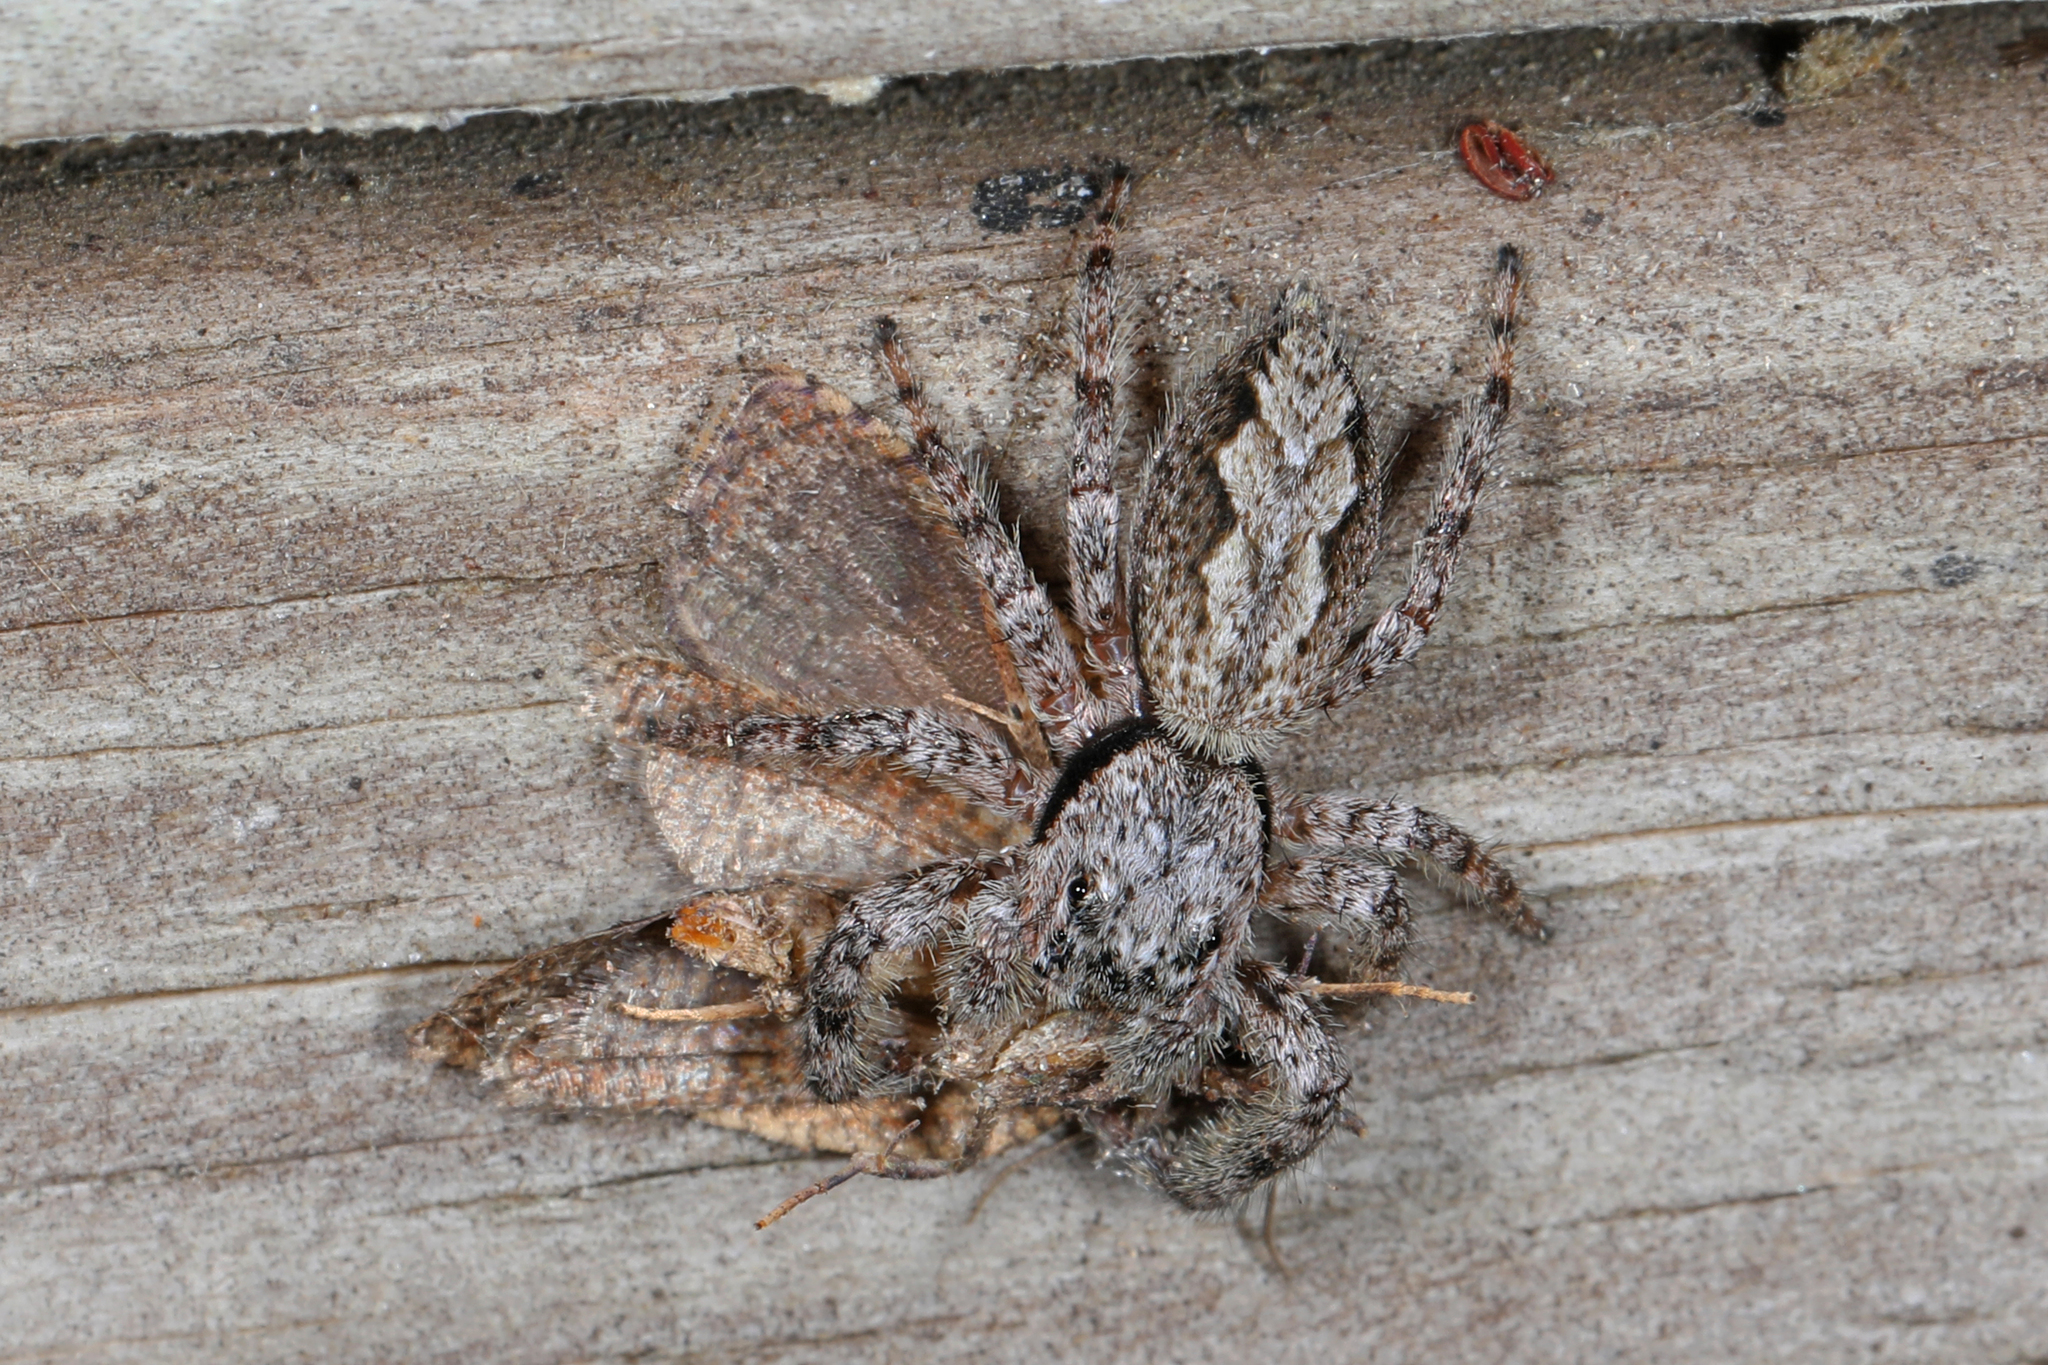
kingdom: Animalia
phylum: Arthropoda
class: Arachnida
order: Araneae
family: Salticidae
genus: Platycryptus
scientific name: Platycryptus undatus
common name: Tan jumping spider
